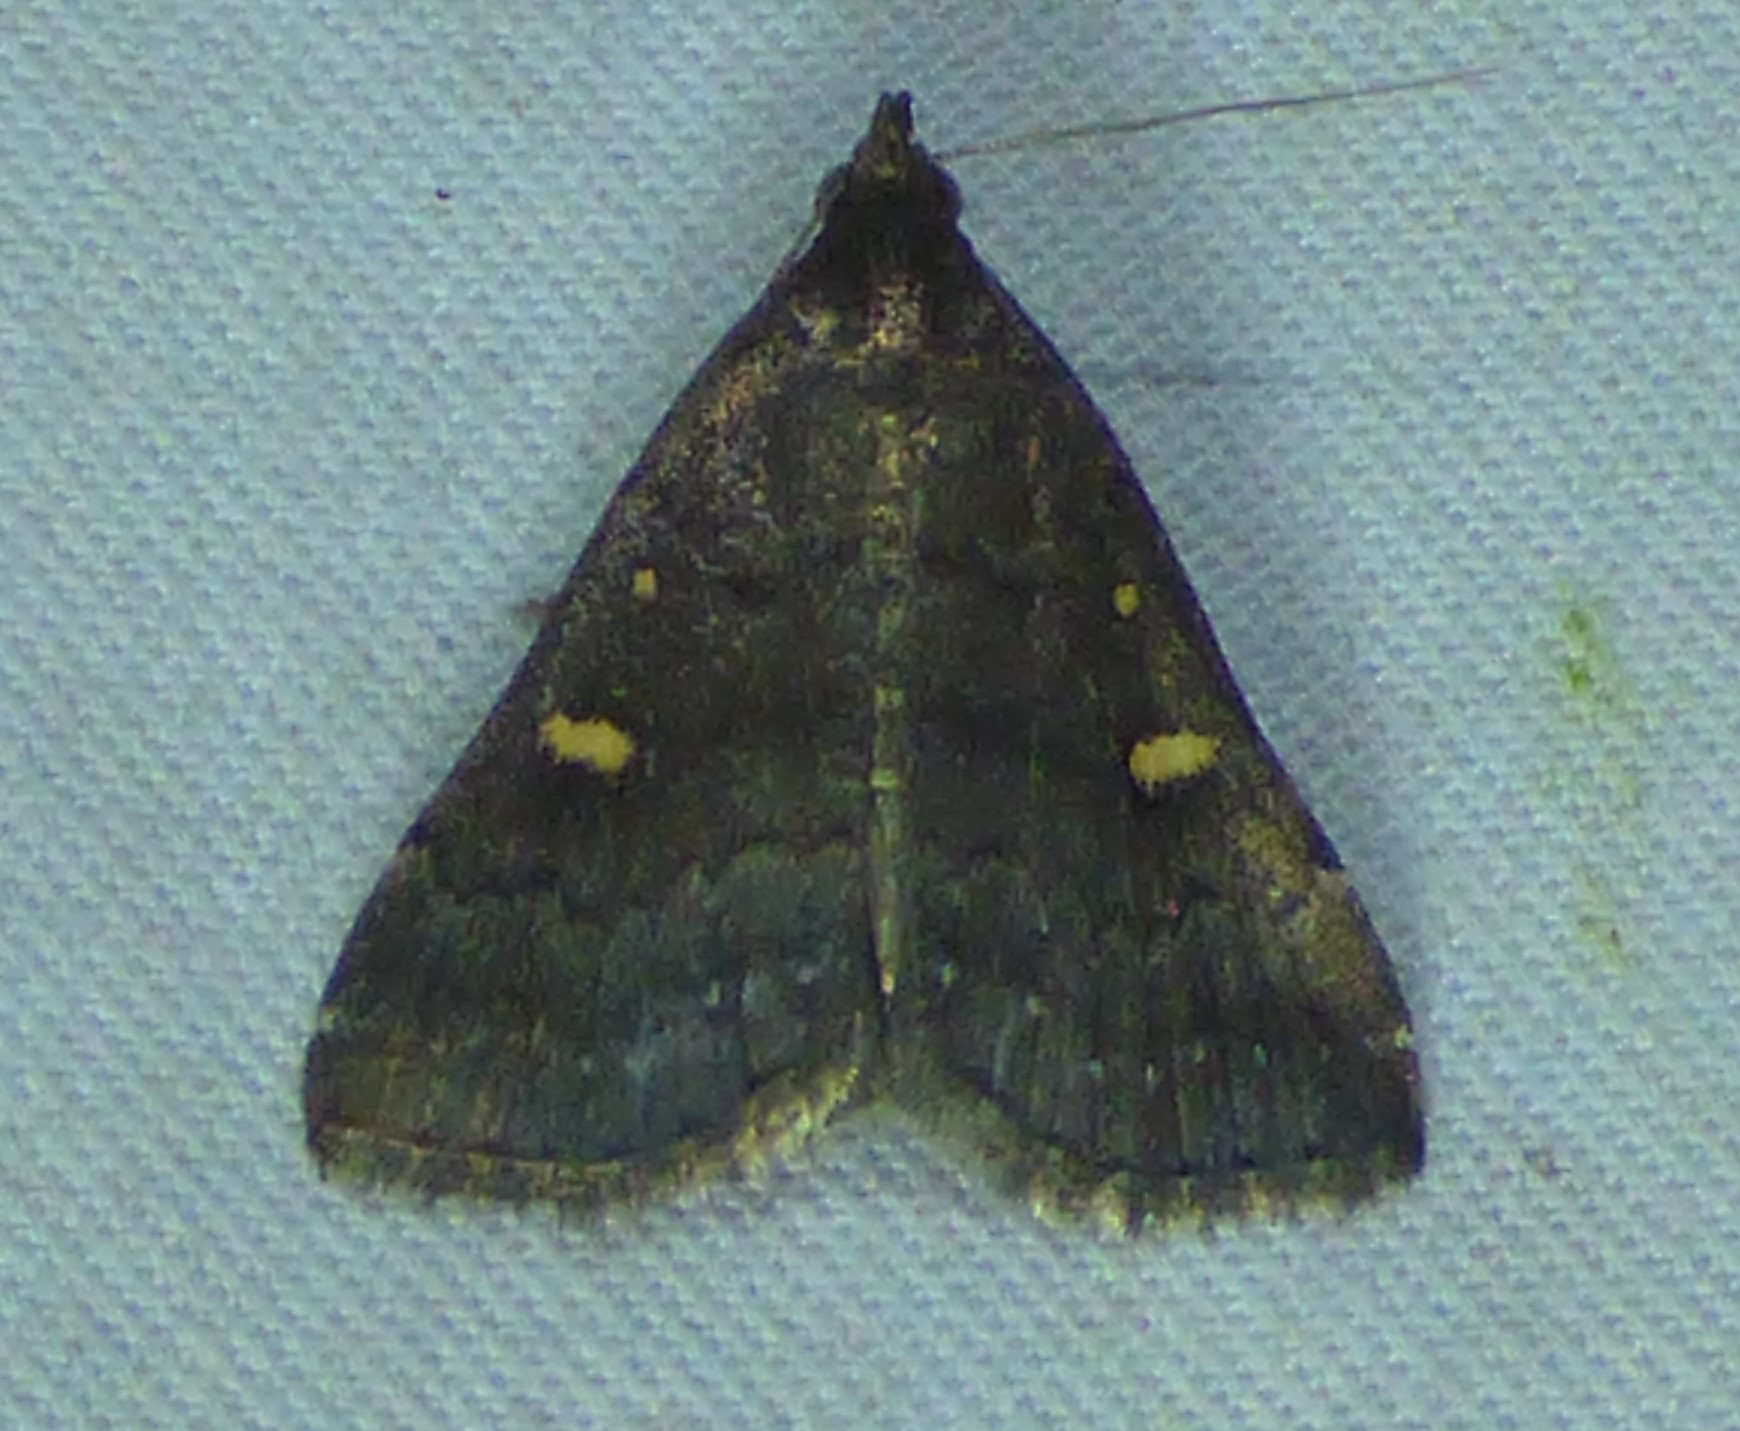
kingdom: Animalia
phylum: Arthropoda
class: Insecta
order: Lepidoptera
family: Erebidae
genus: Tetanolita
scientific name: Tetanolita mynesalis
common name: Smoky tetanolita moth
